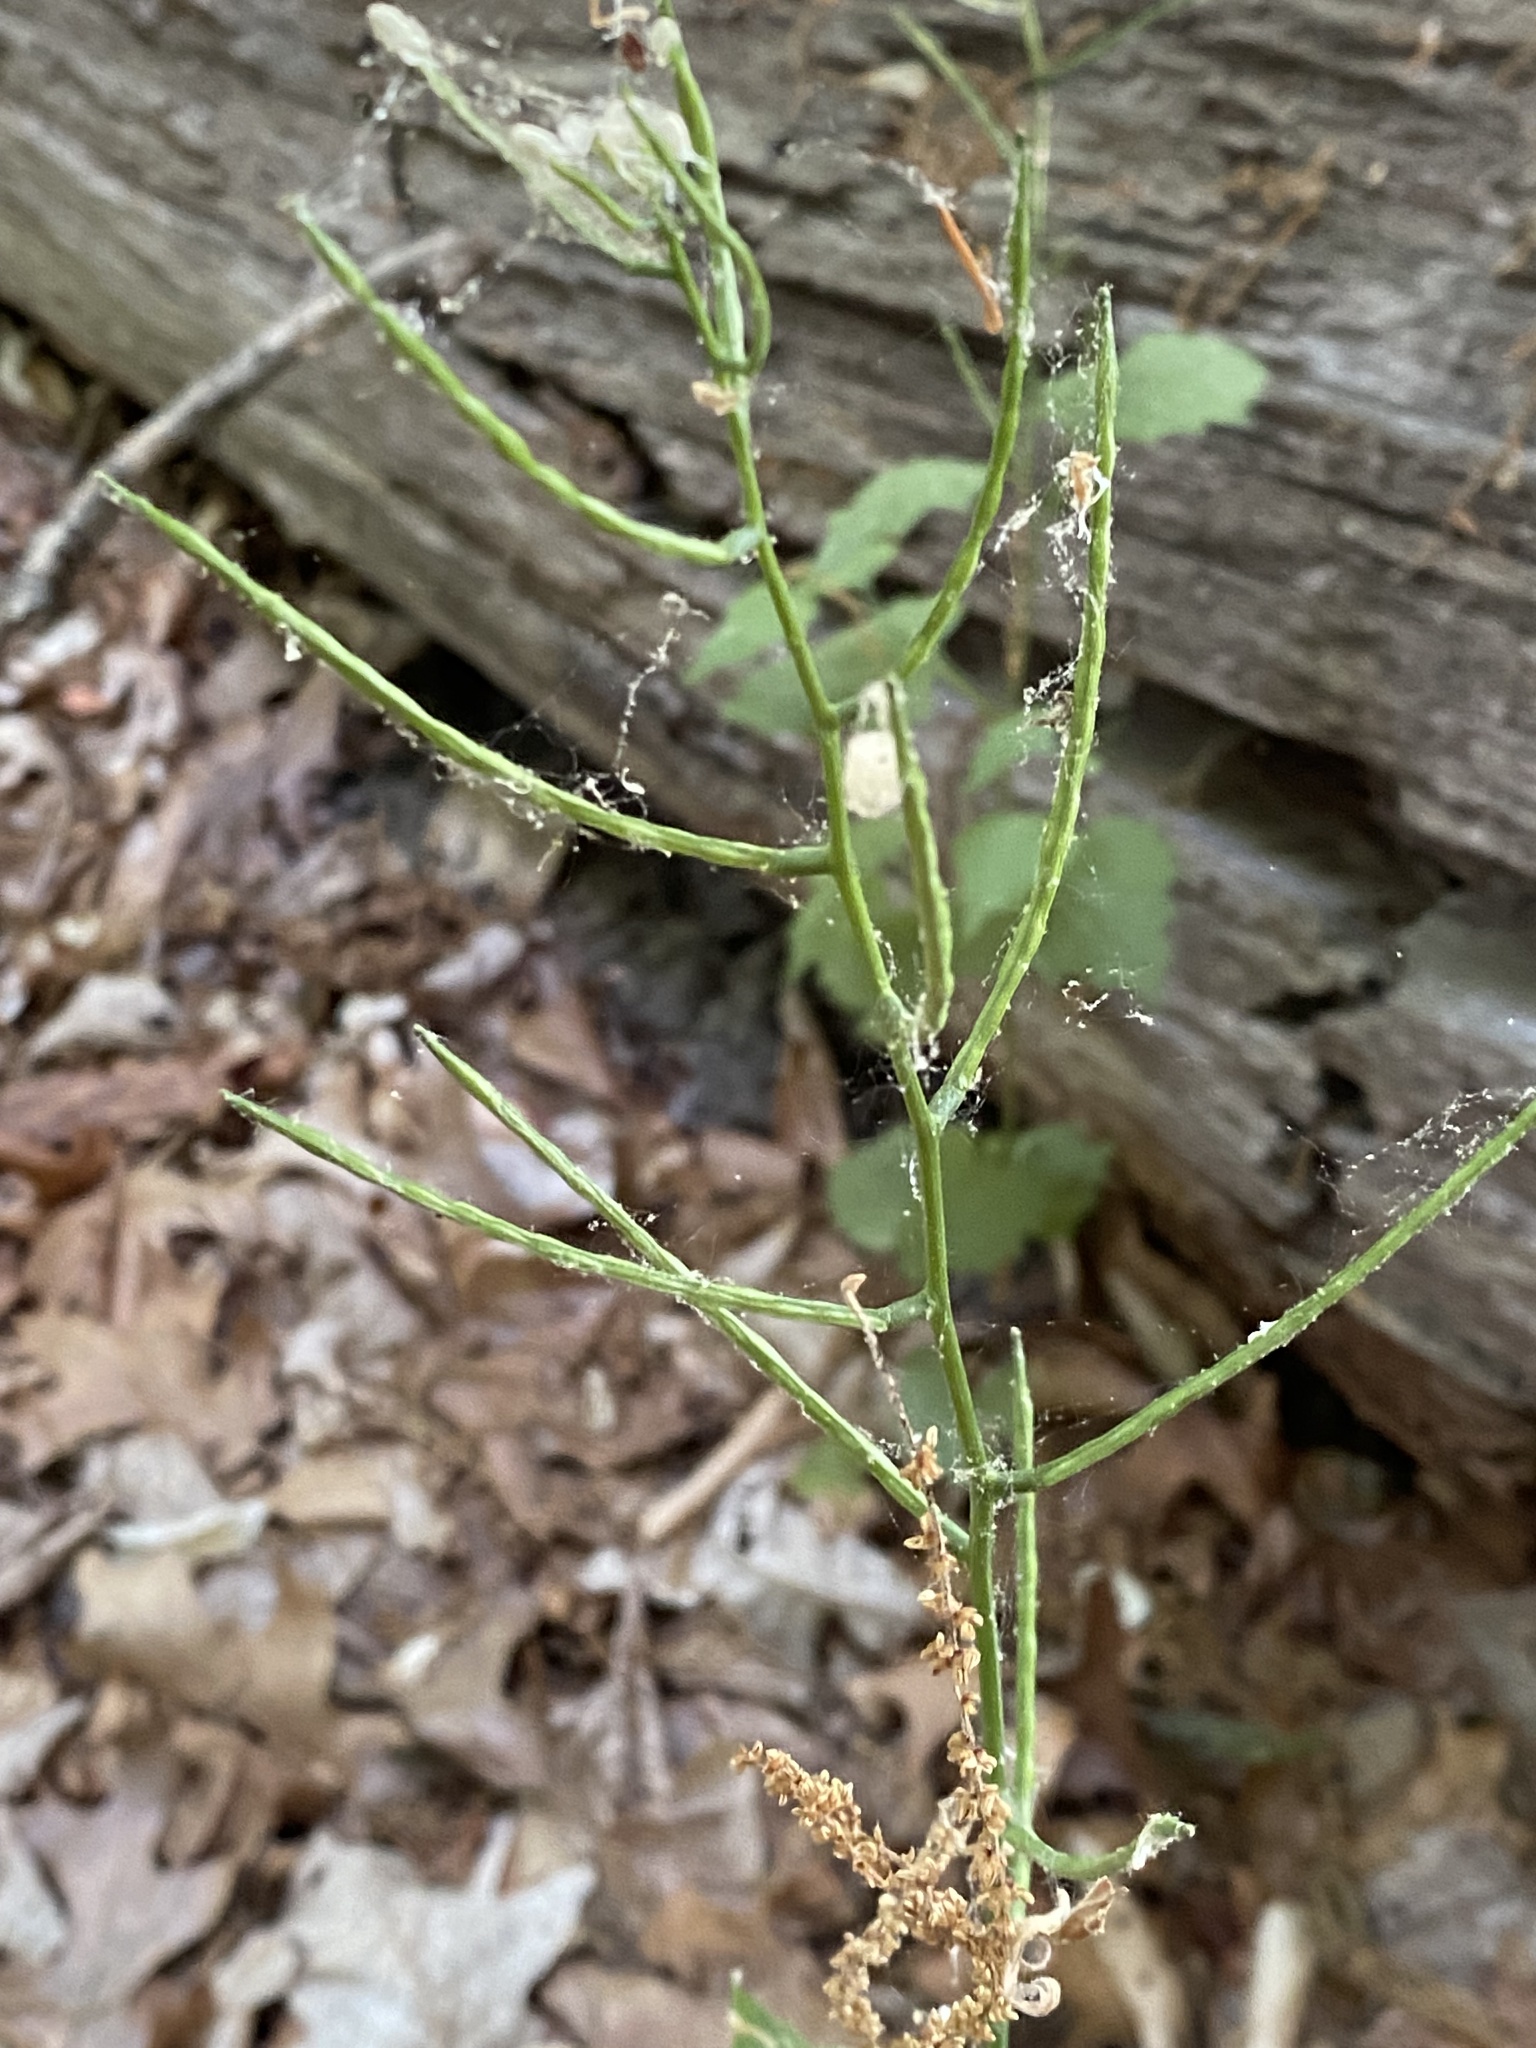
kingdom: Plantae
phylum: Tracheophyta
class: Magnoliopsida
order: Brassicales
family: Brassicaceae
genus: Alliaria
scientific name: Alliaria petiolata
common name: Garlic mustard
